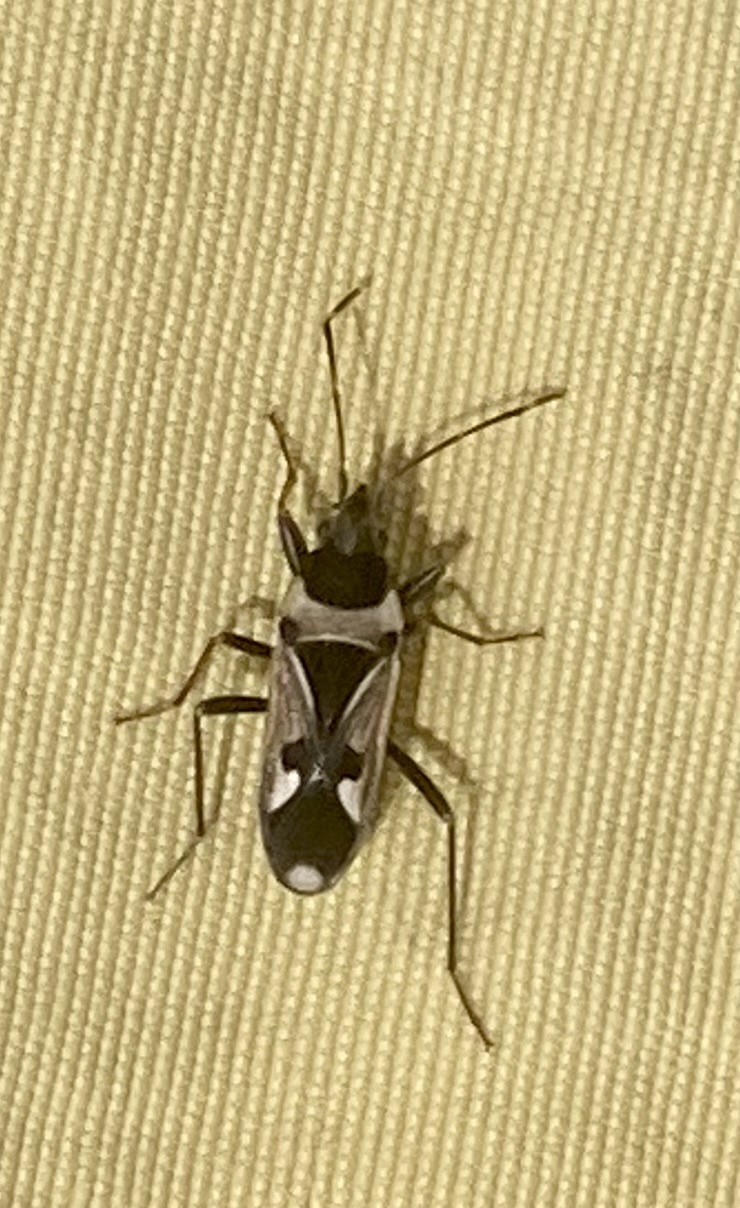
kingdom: Animalia
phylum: Arthropoda
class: Insecta
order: Hemiptera
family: Rhyparochromidae
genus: Raglius
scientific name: Raglius confusus
